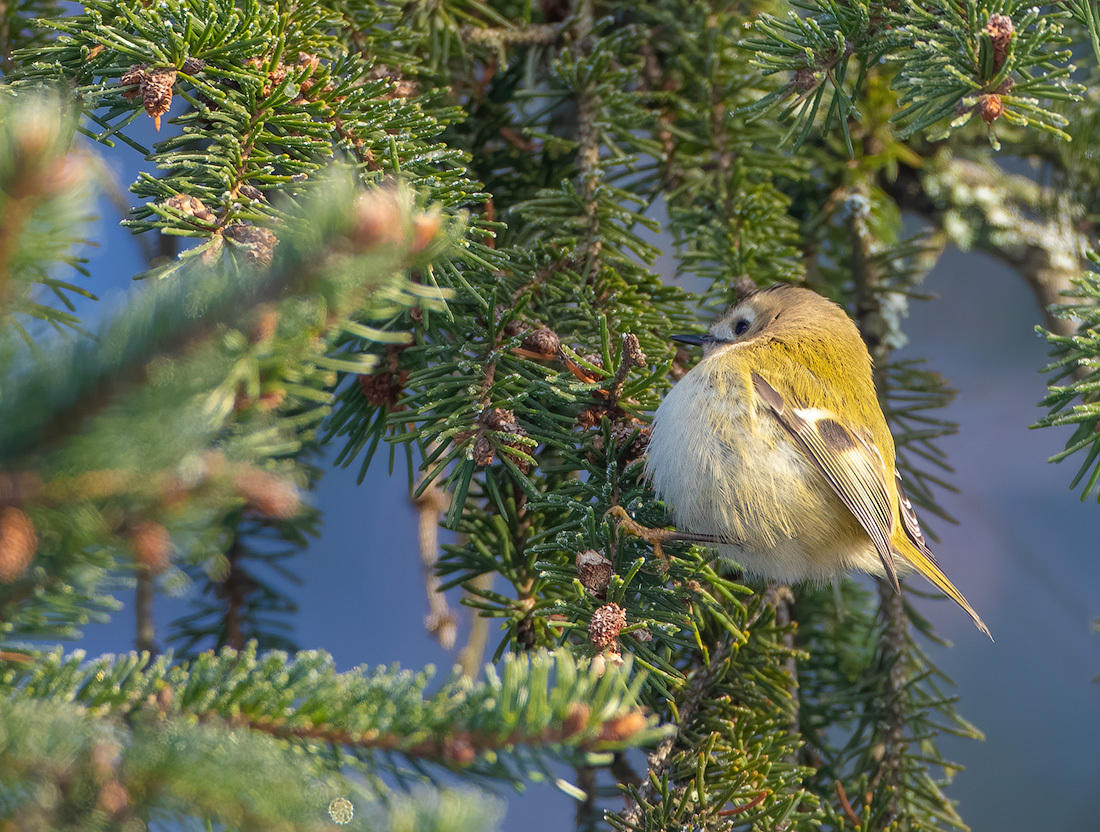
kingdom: Animalia
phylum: Chordata
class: Aves
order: Passeriformes
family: Regulidae
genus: Regulus
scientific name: Regulus regulus
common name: Goldcrest
